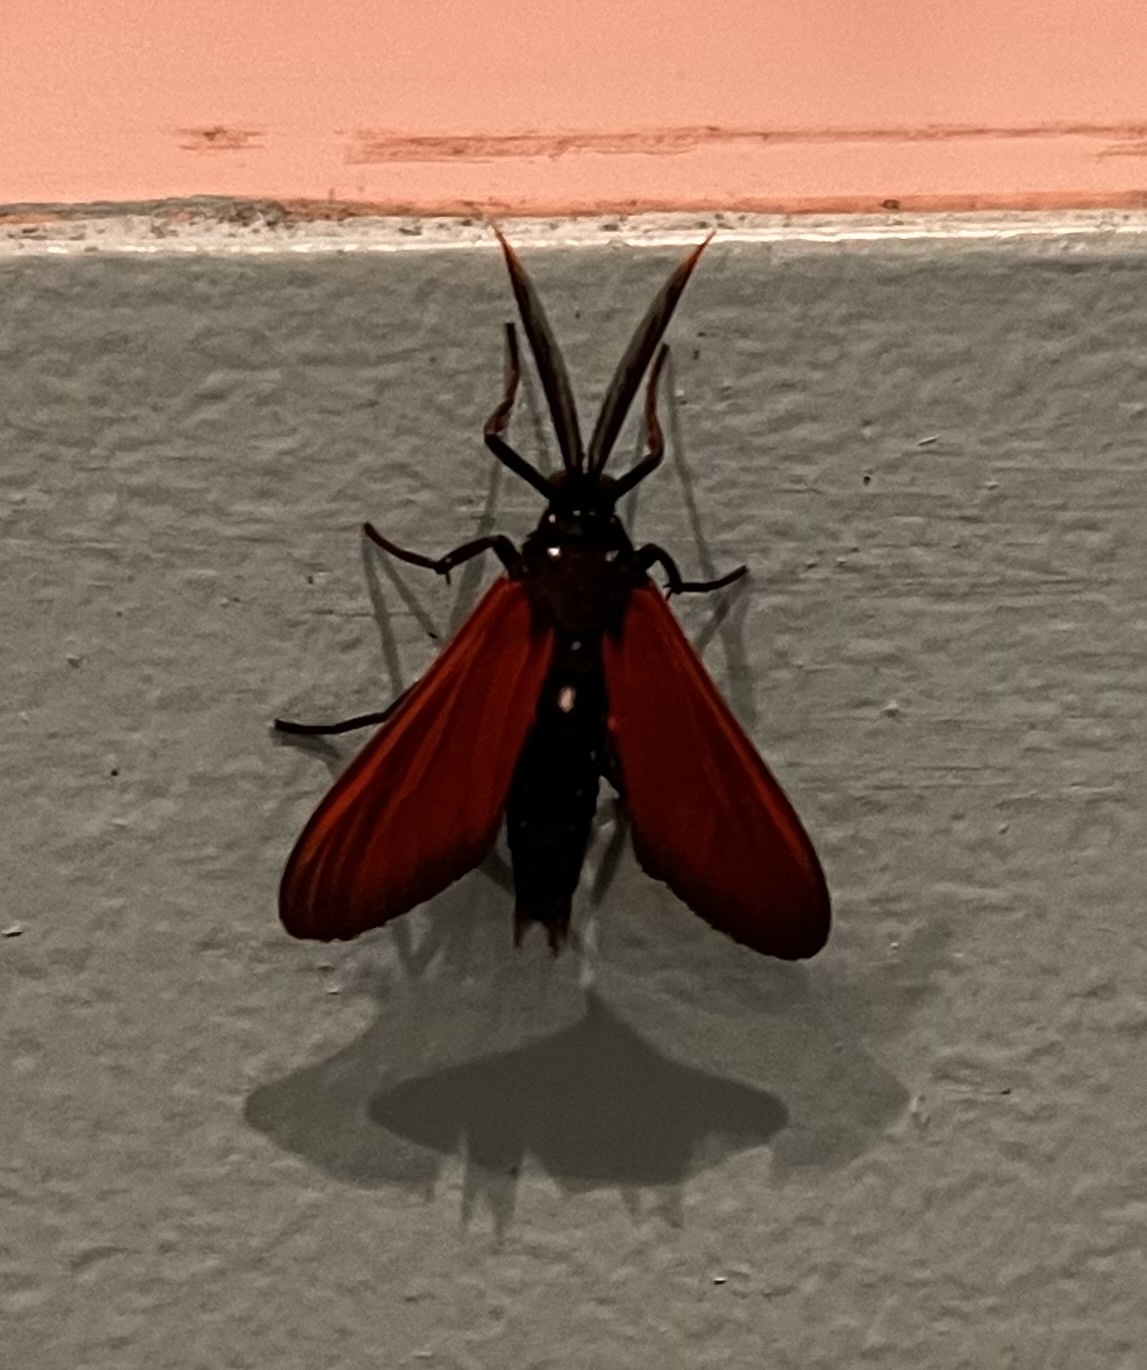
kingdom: Animalia
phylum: Arthropoda
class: Insecta
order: Lepidoptera
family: Erebidae
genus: Empyreuma
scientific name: Empyreuma pugione
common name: Spotted oleander caterpillar moth
